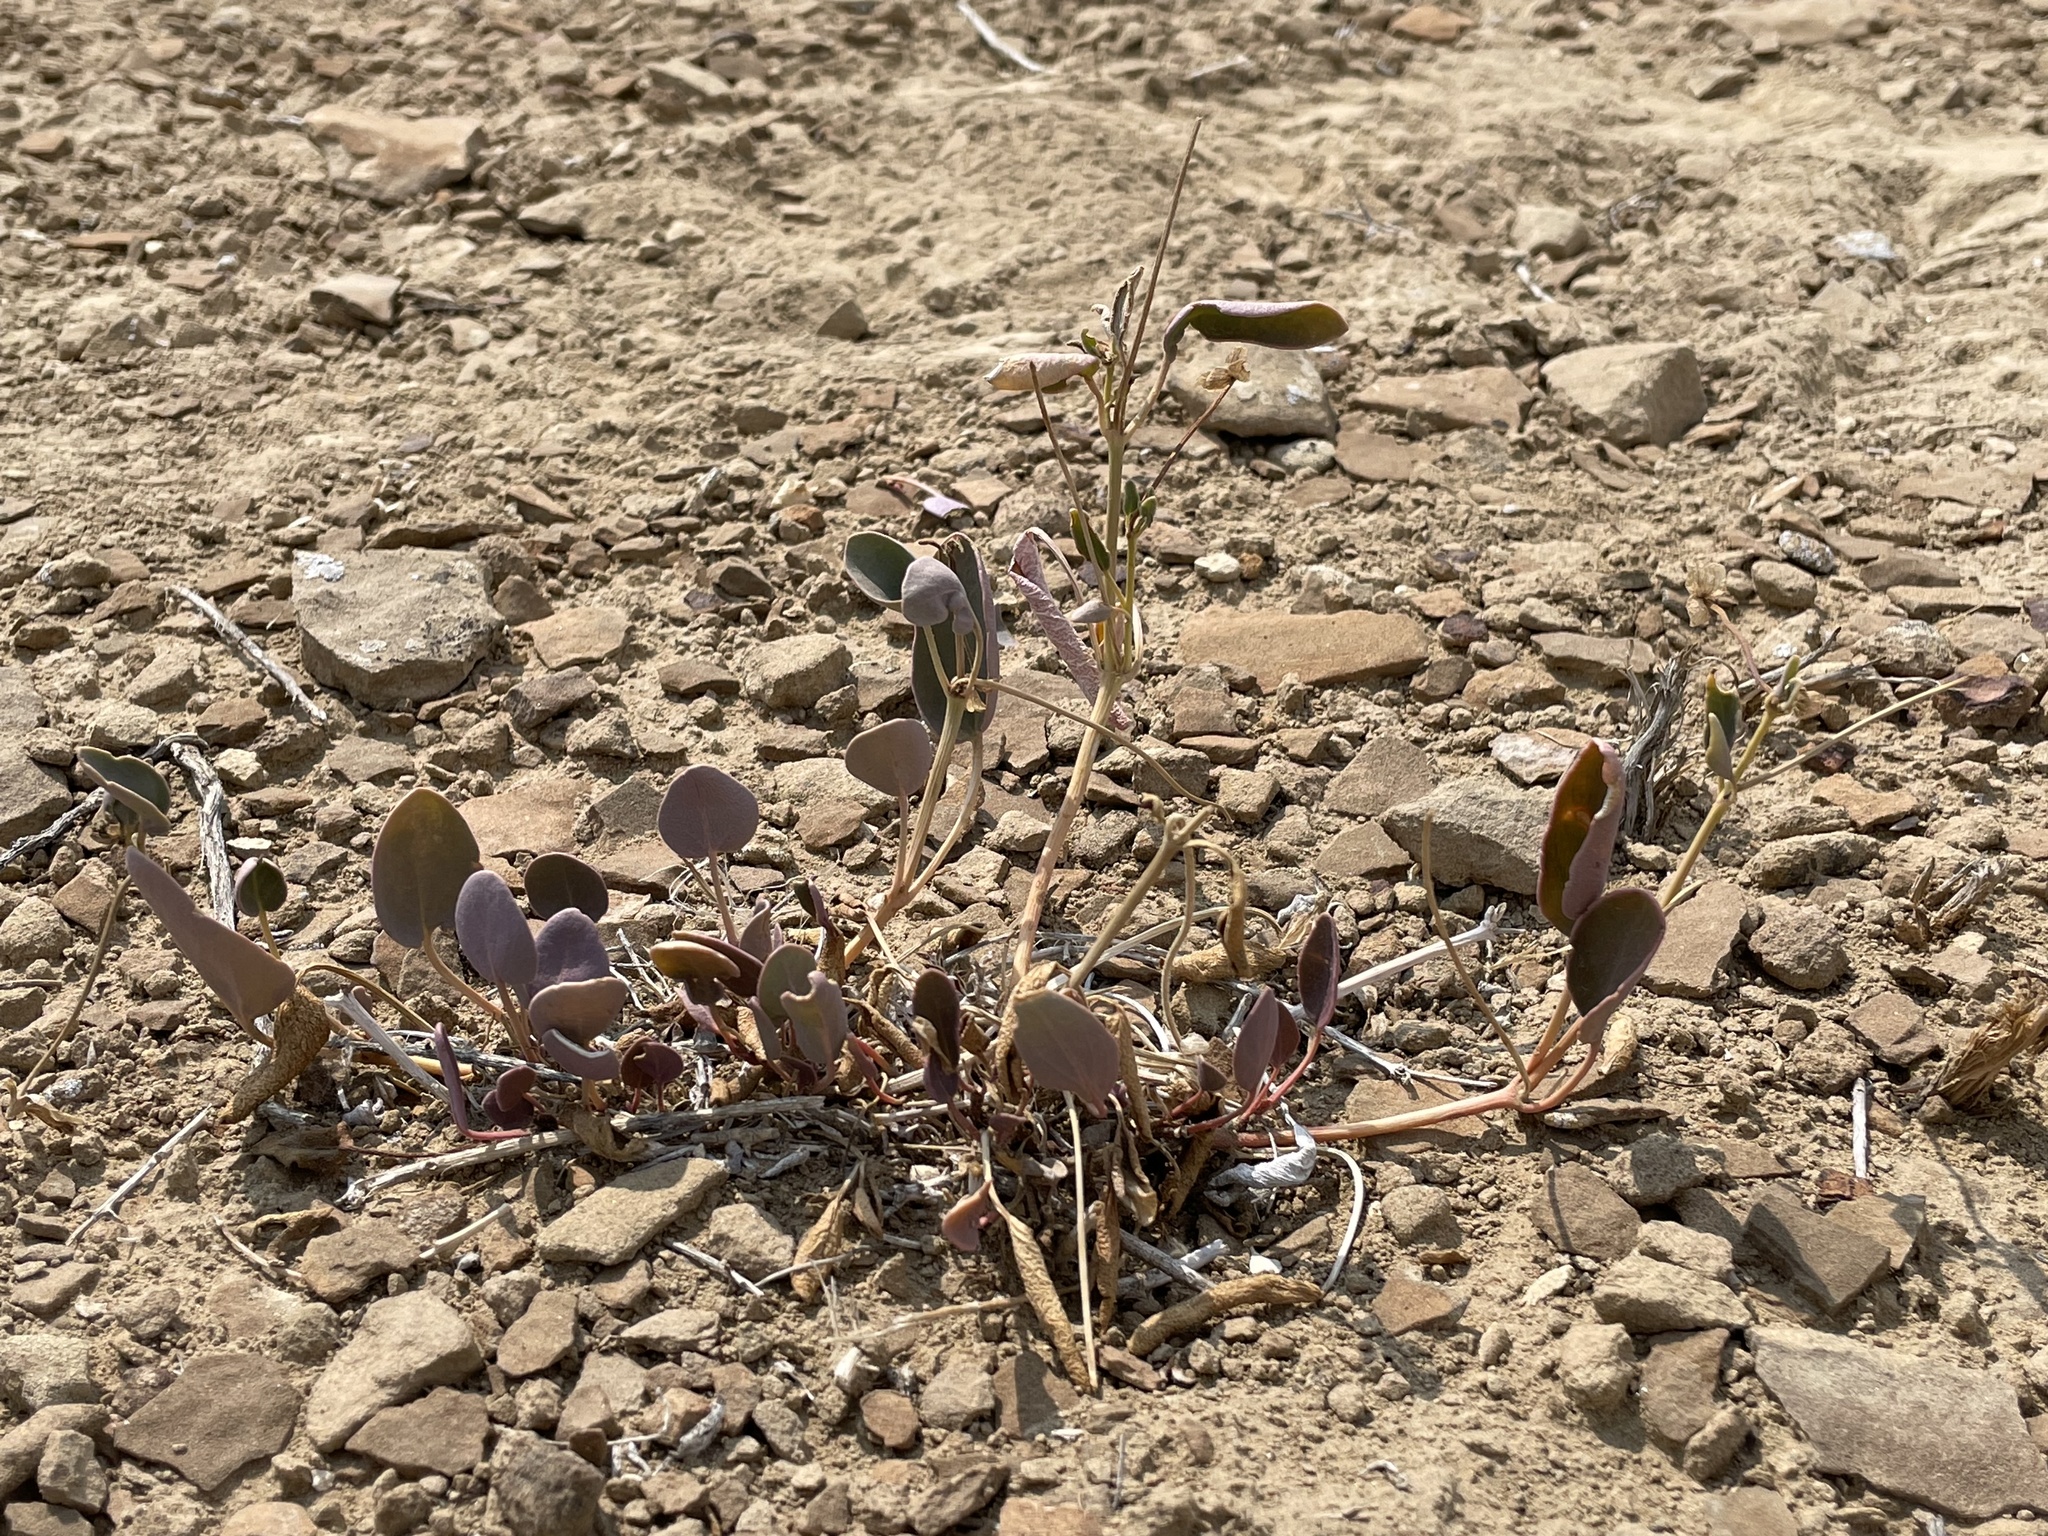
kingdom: Plantae
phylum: Tracheophyta
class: Magnoliopsida
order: Caryophyllales
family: Nyctaginaceae
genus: Abronia
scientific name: Abronia elliptica
